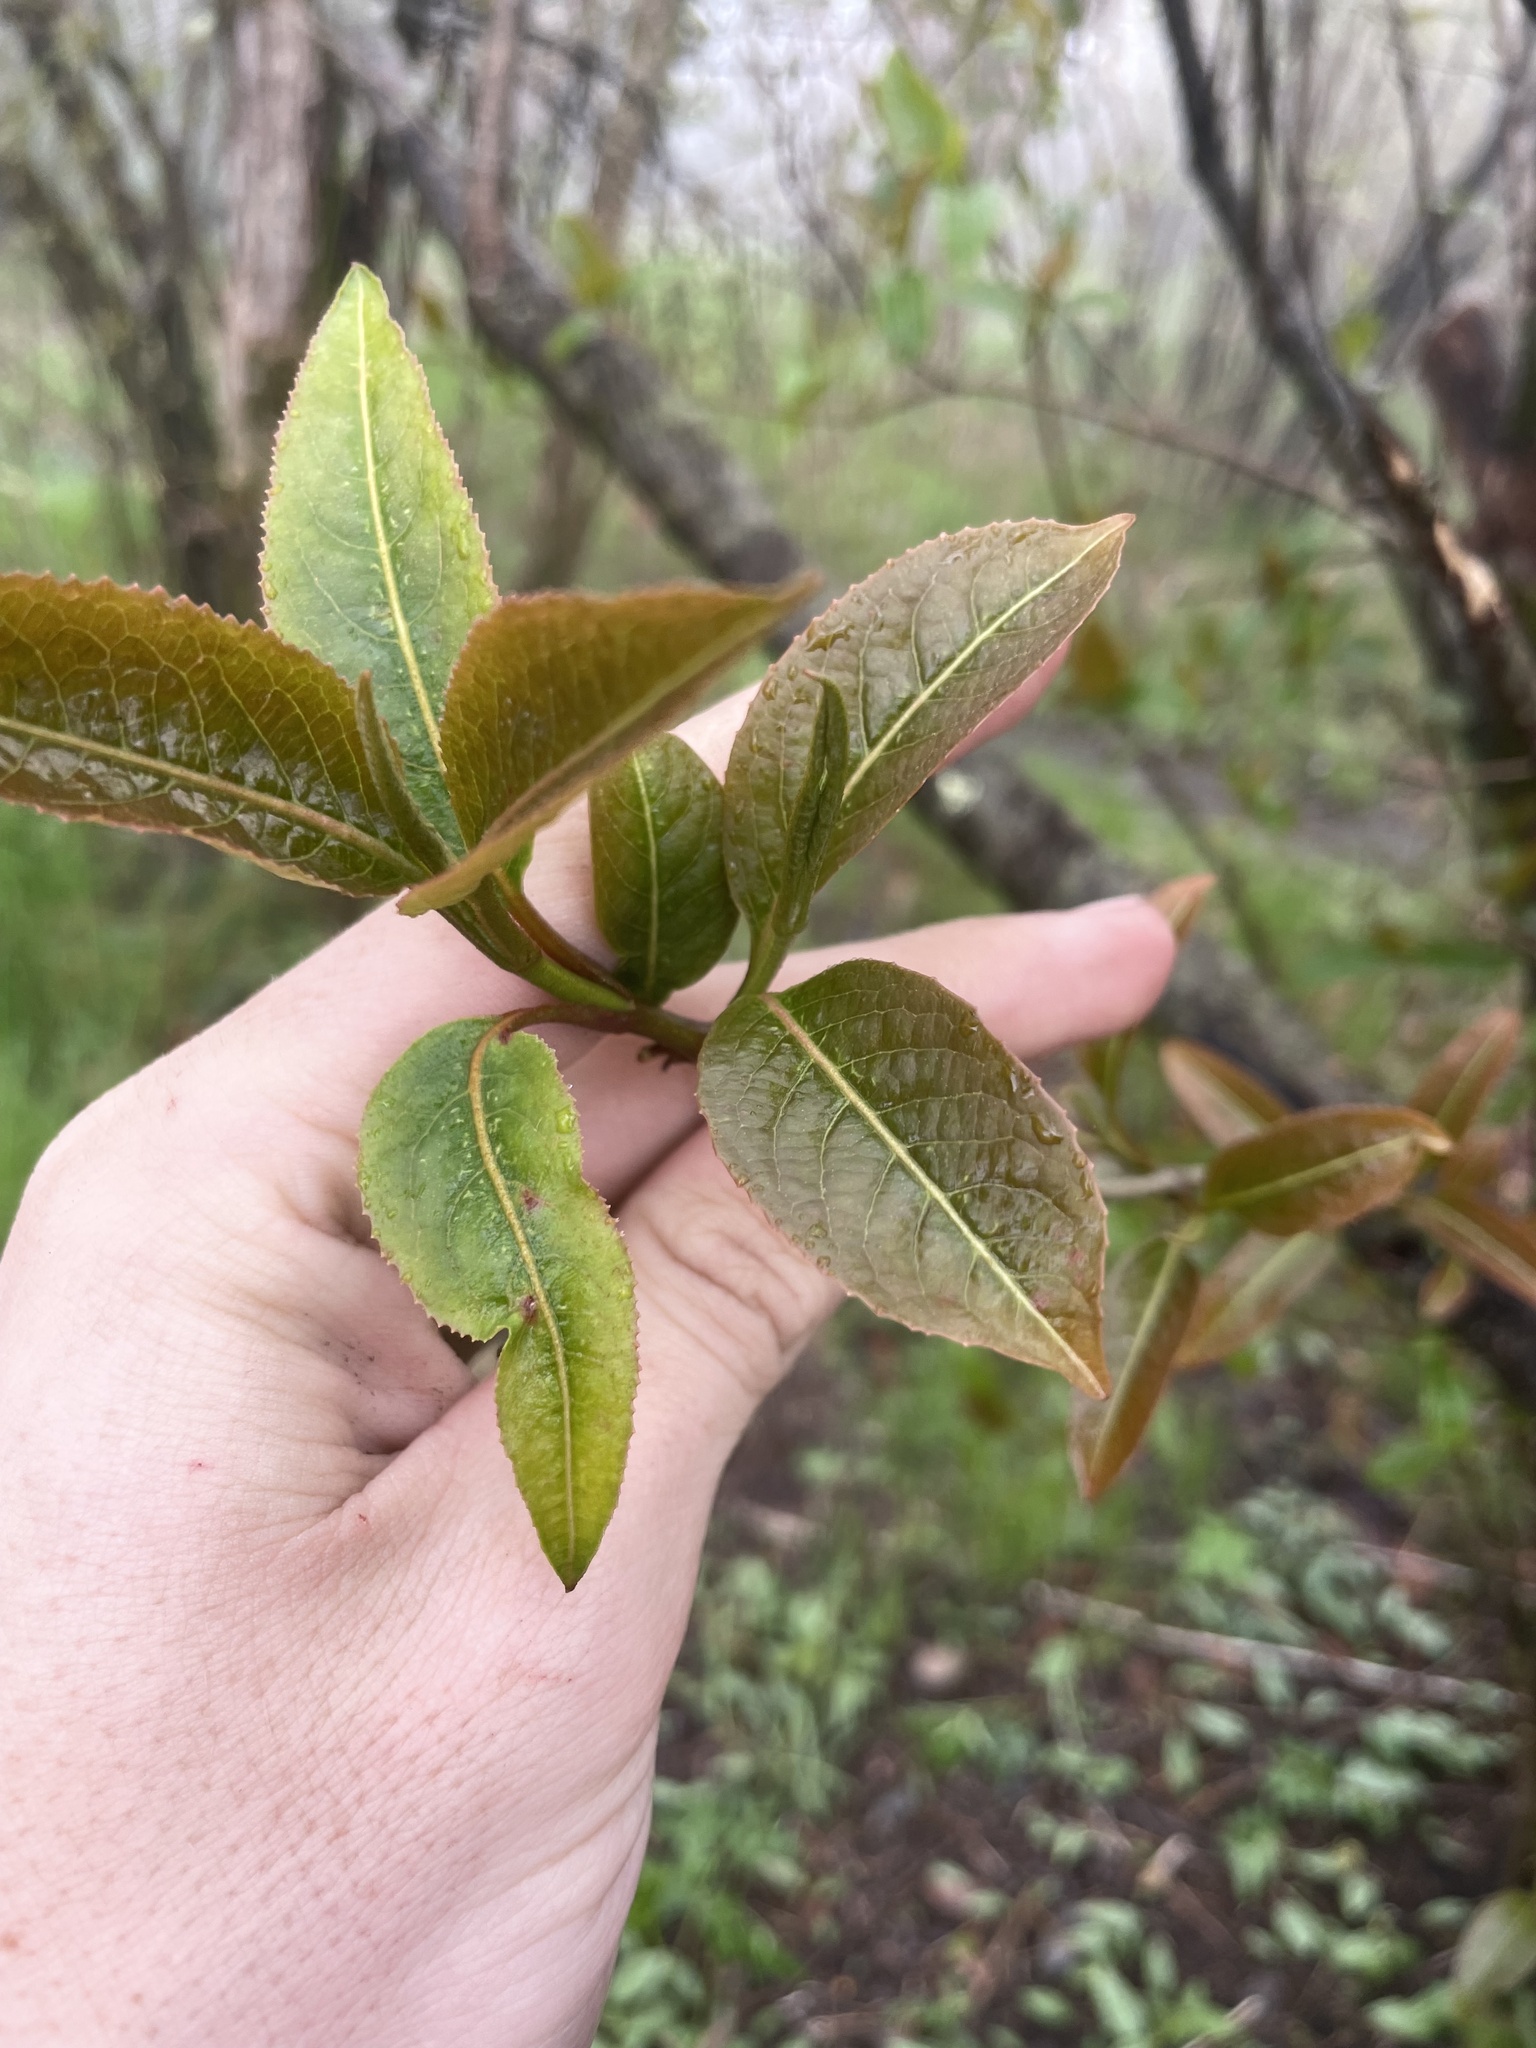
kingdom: Plantae
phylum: Tracheophyta
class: Magnoliopsida
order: Dipsacales
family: Viburnaceae
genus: Viburnum
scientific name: Viburnum cassinoides
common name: Swamp haw
